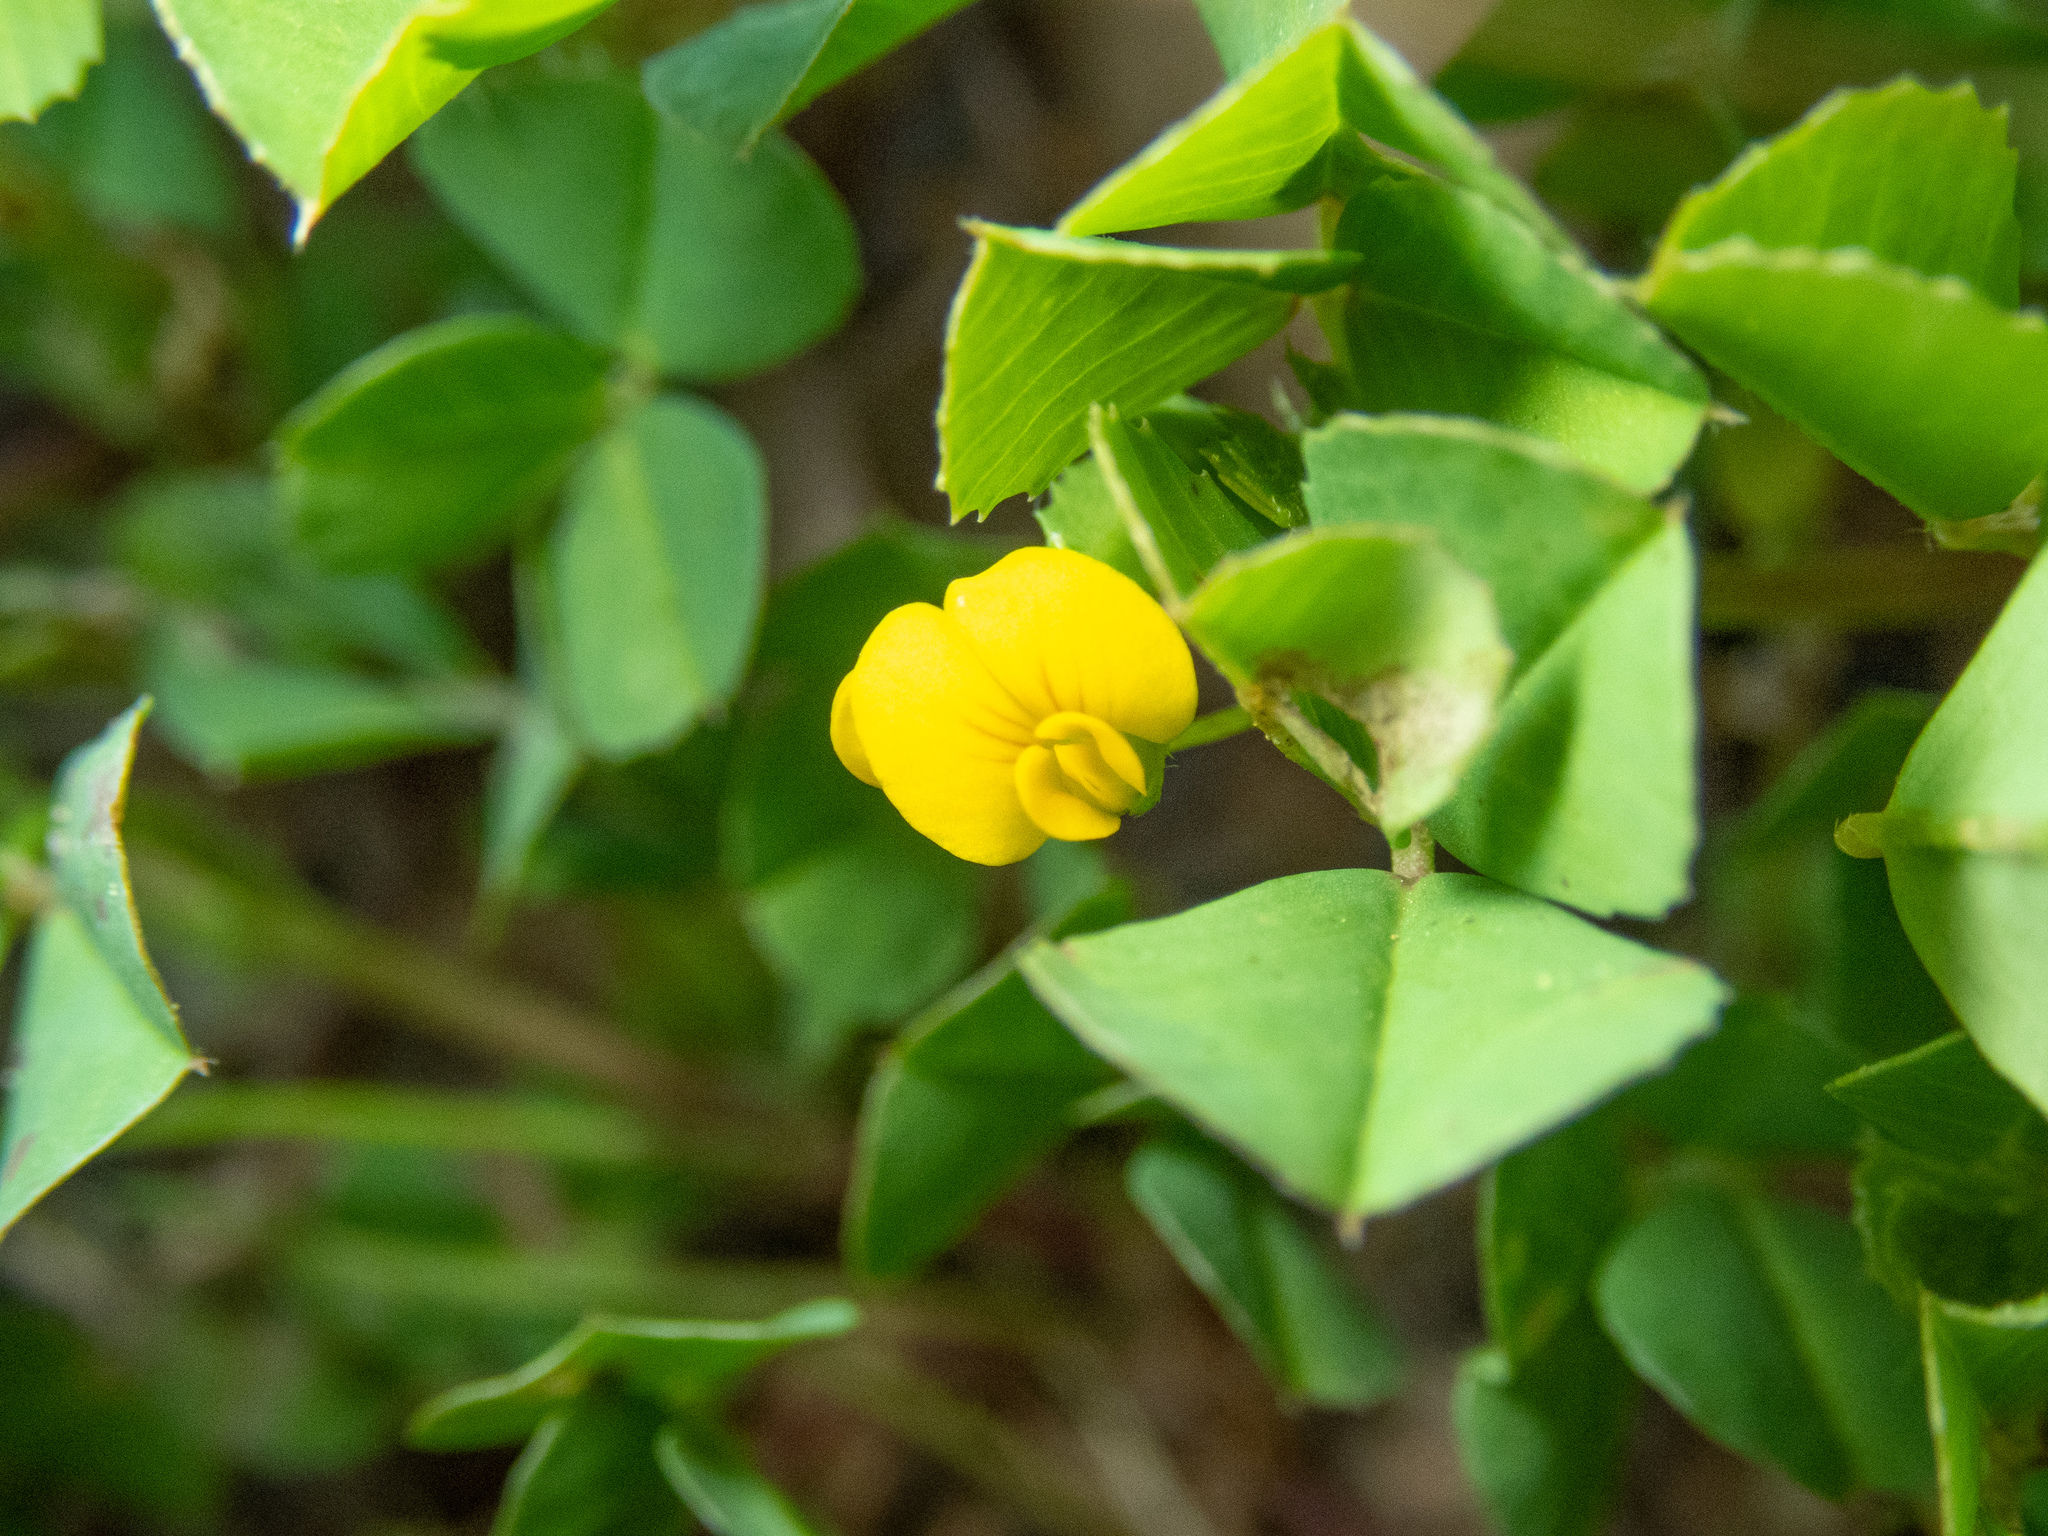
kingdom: Plantae
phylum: Tracheophyta
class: Magnoliopsida
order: Fabales
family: Fabaceae
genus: Medicago
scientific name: Medicago polymorpha
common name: Burclover
